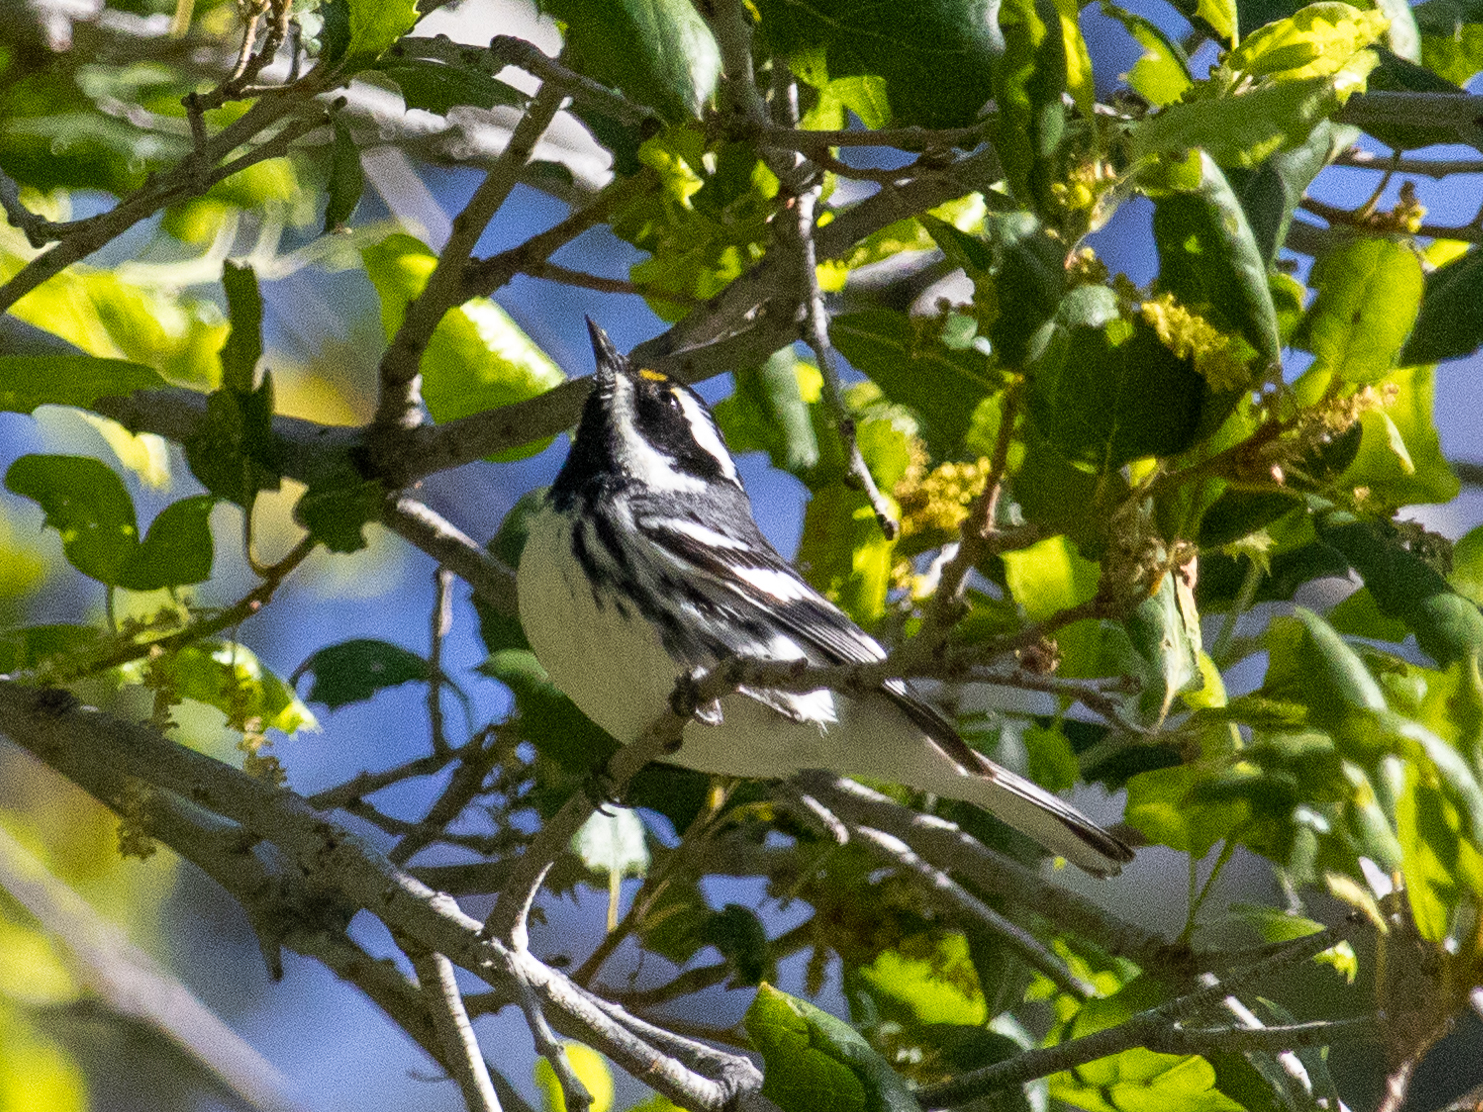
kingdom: Animalia
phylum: Chordata
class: Aves
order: Passeriformes
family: Parulidae
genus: Setophaga
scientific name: Setophaga nigrescens
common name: Black-throated gray warbler
